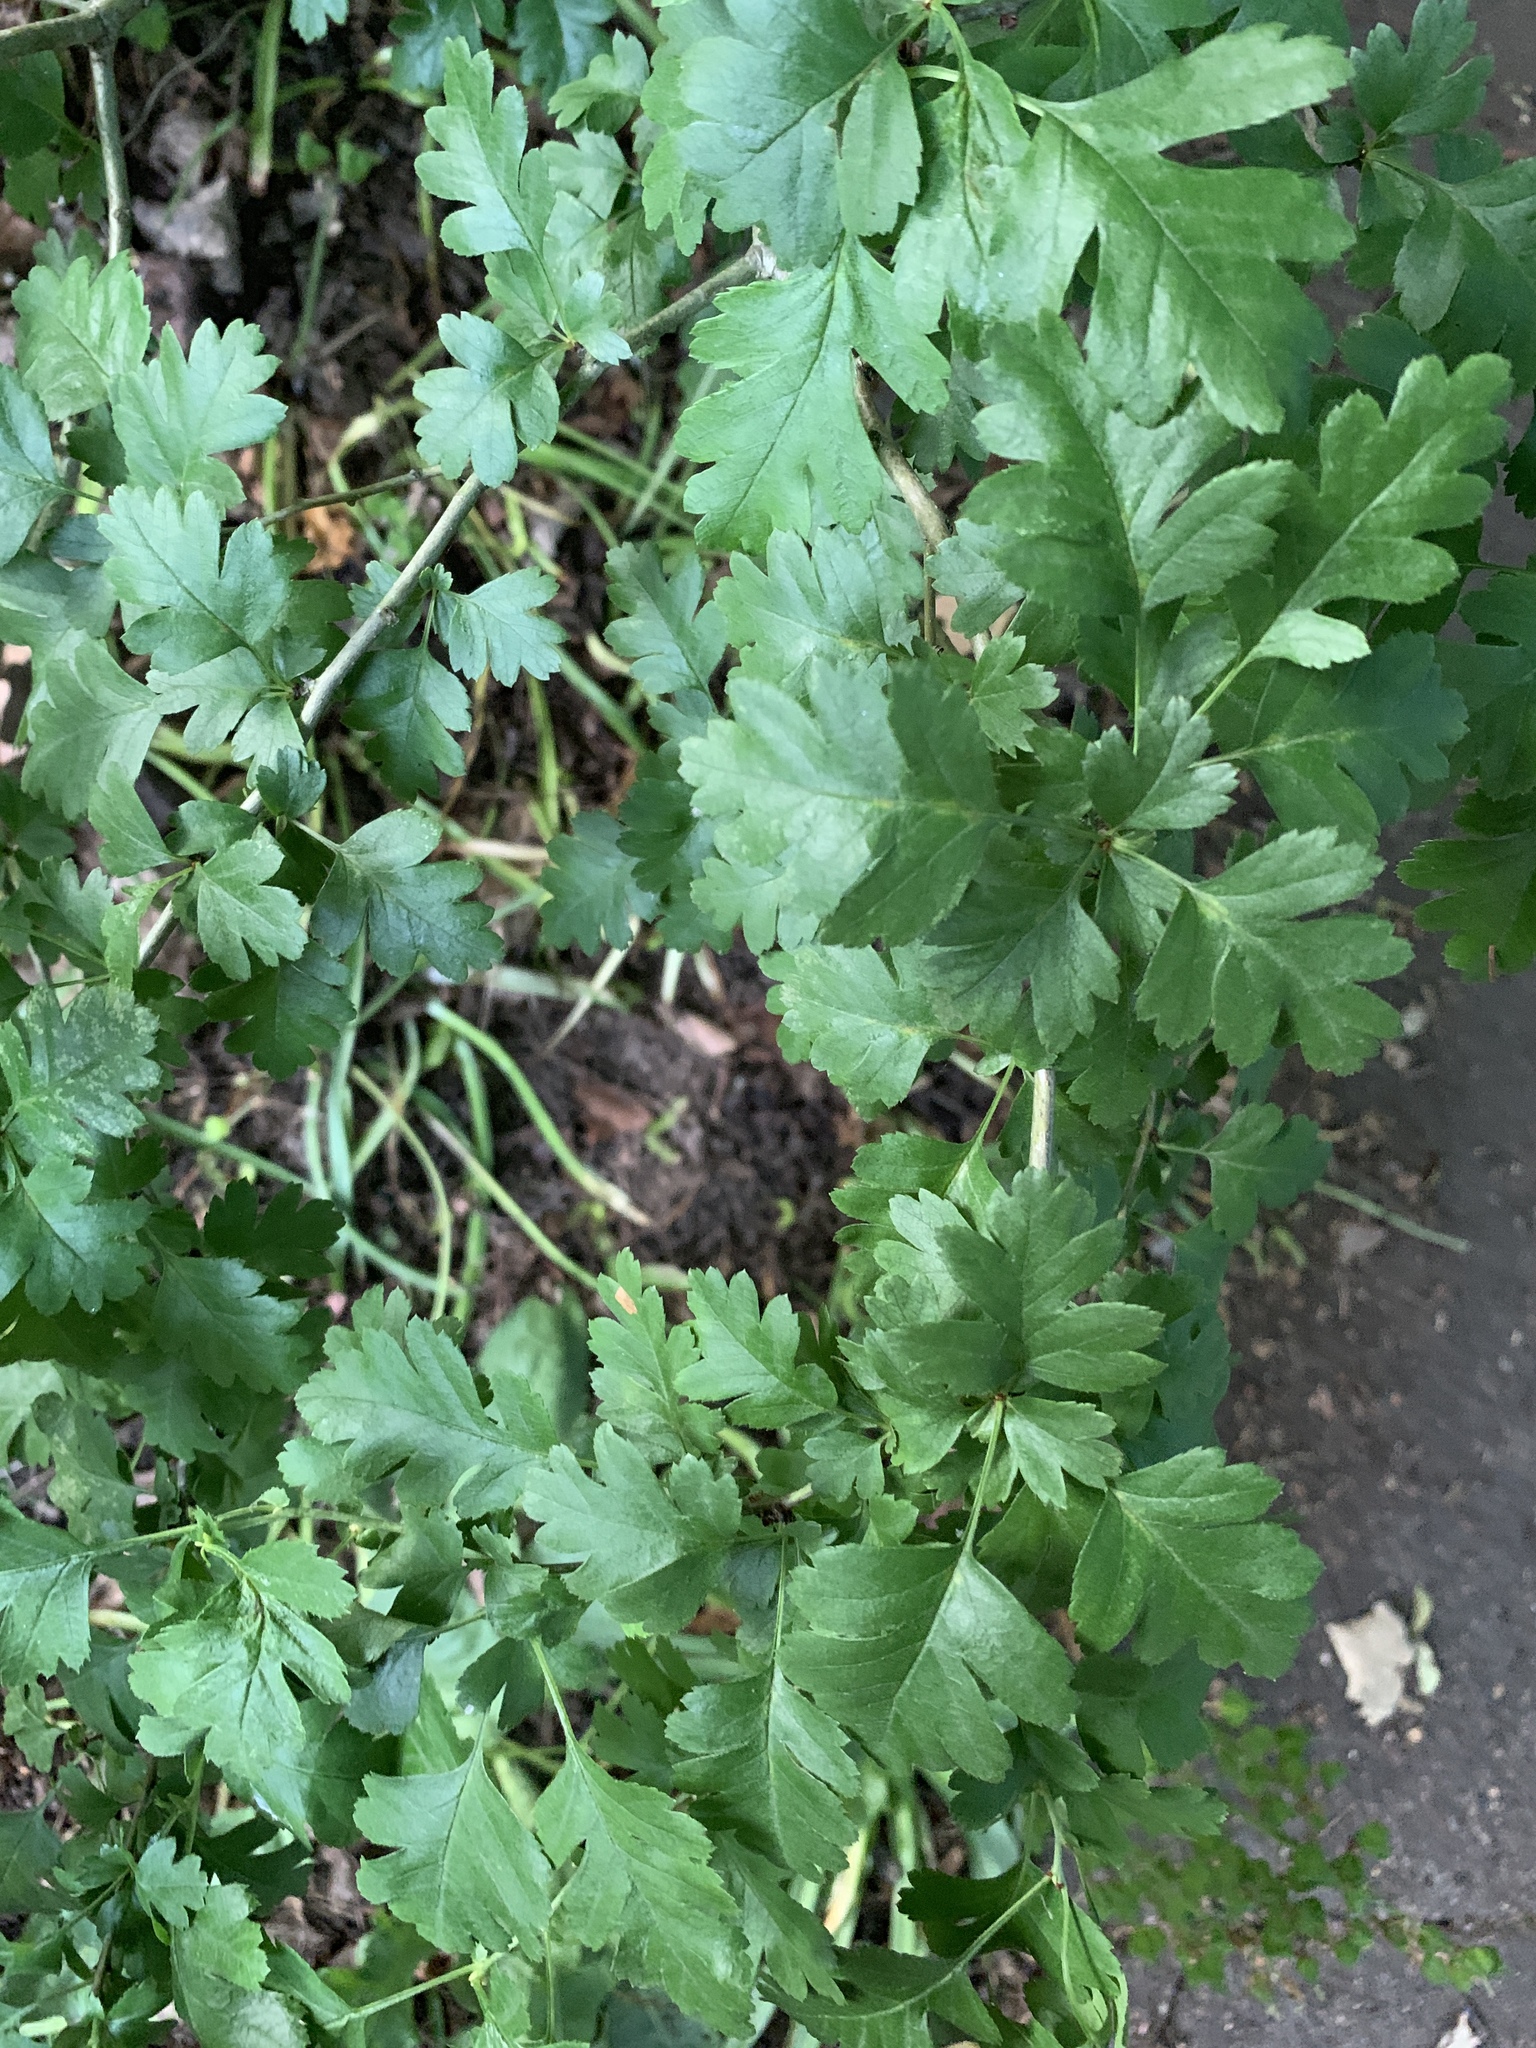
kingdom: Plantae
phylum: Tracheophyta
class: Magnoliopsida
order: Rosales
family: Rosaceae
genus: Crataegus
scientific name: Crataegus monogyna
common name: Hawthorn
